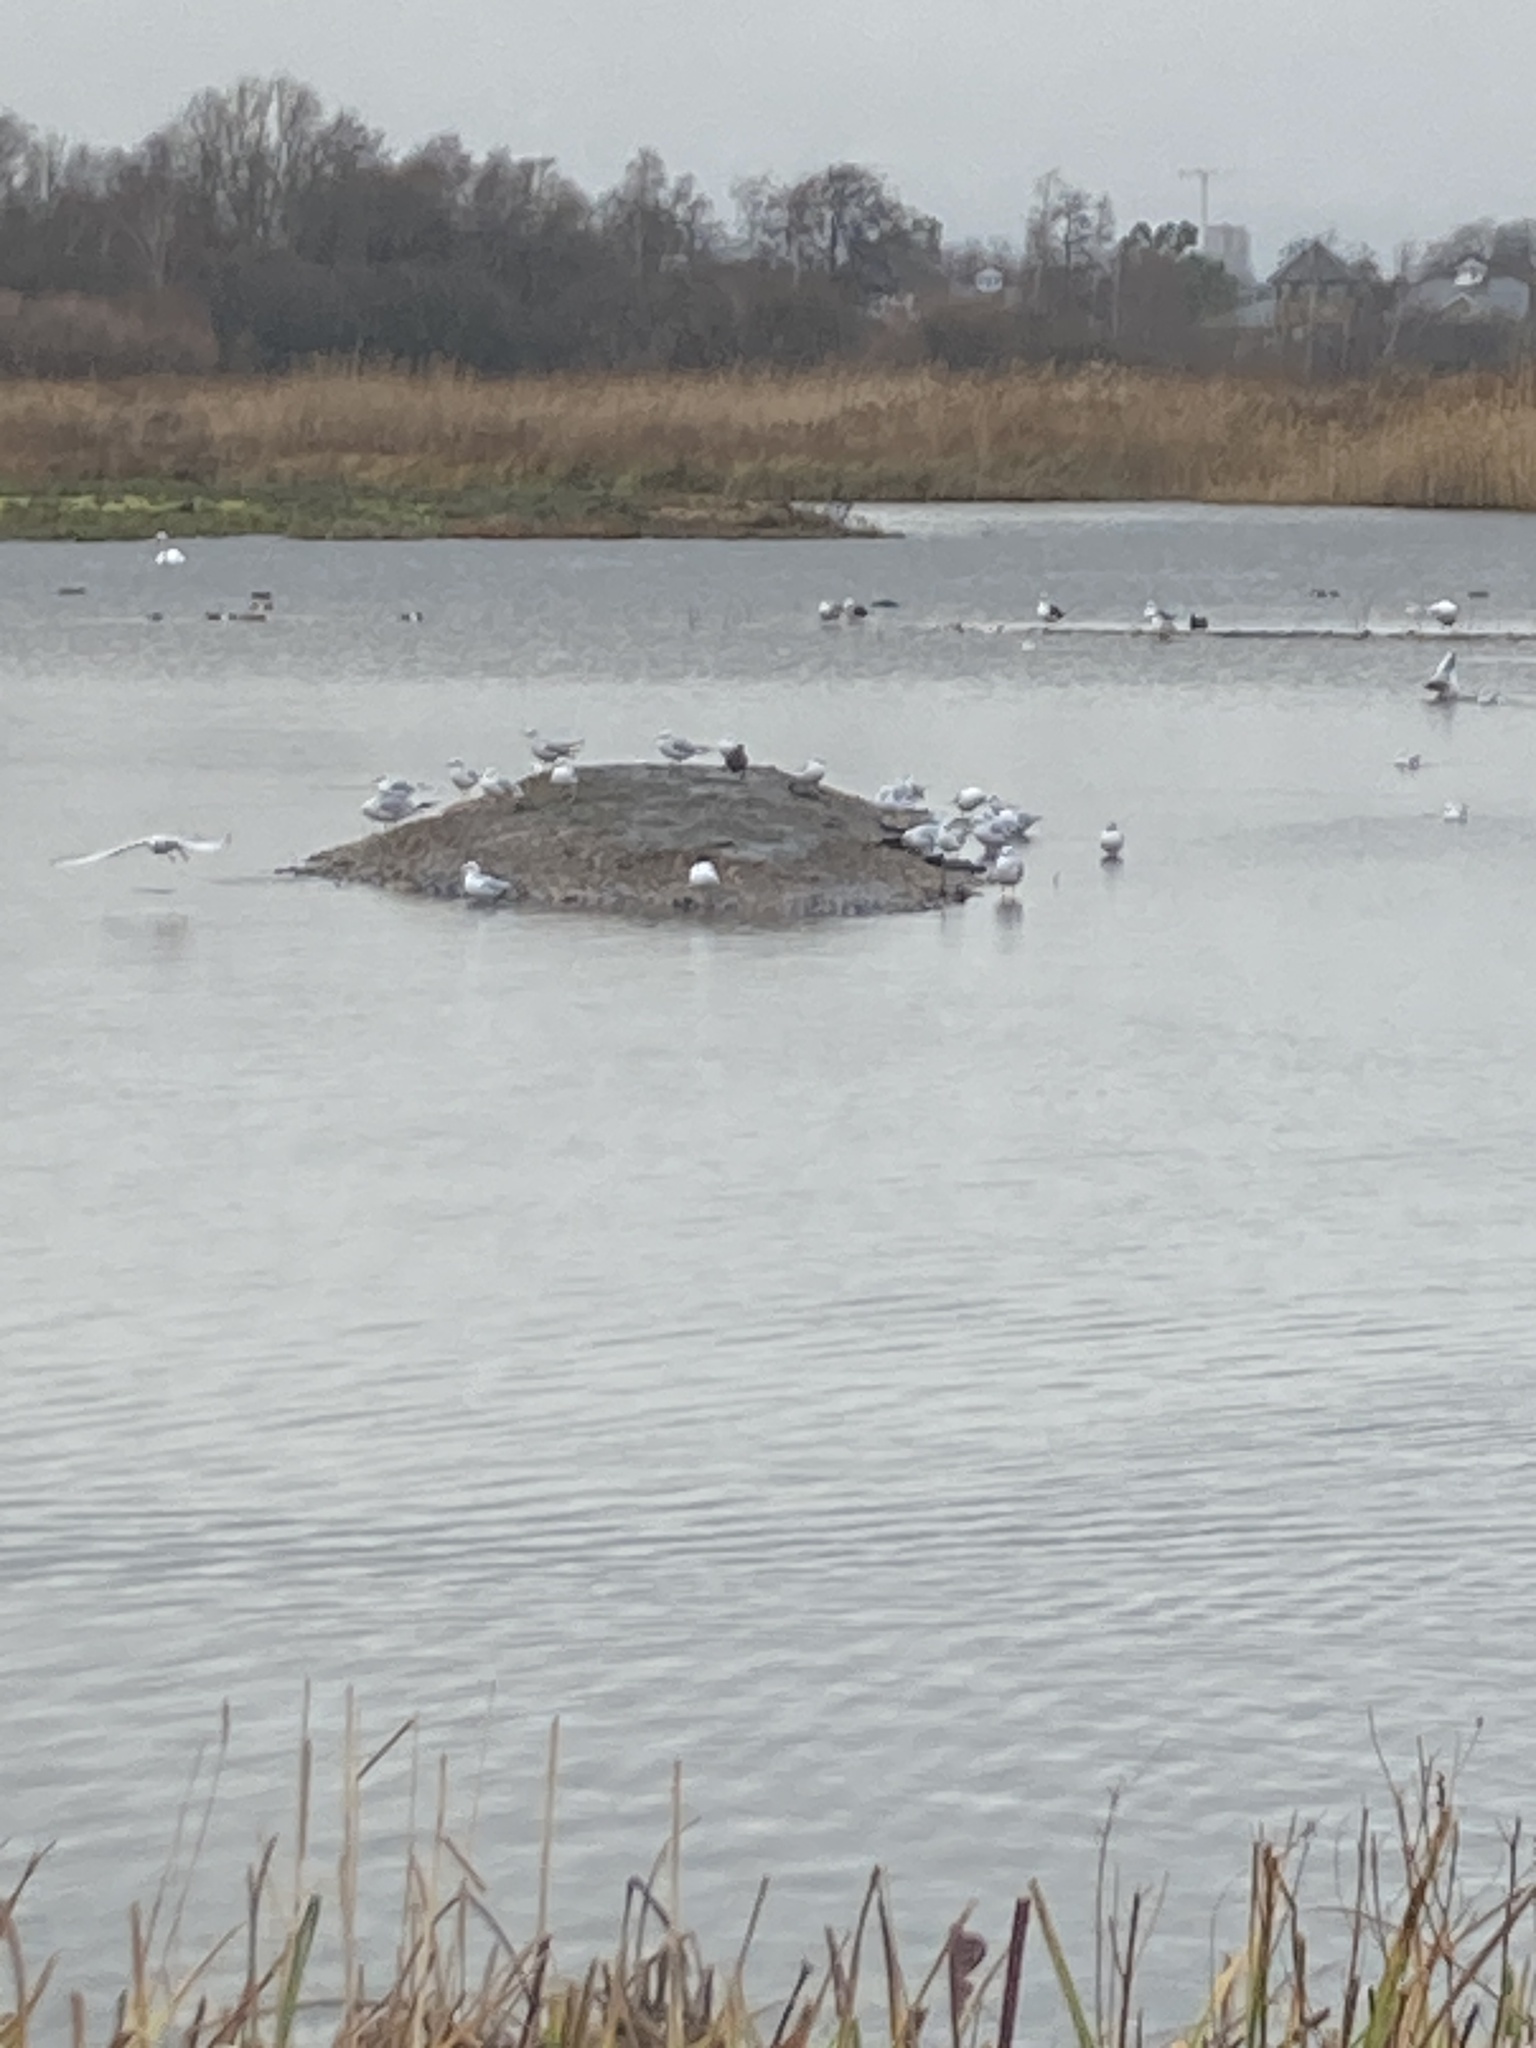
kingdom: Animalia
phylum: Chordata
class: Aves
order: Charadriiformes
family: Laridae
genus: Chroicocephalus
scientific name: Chroicocephalus ridibundus
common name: Black-headed gull
